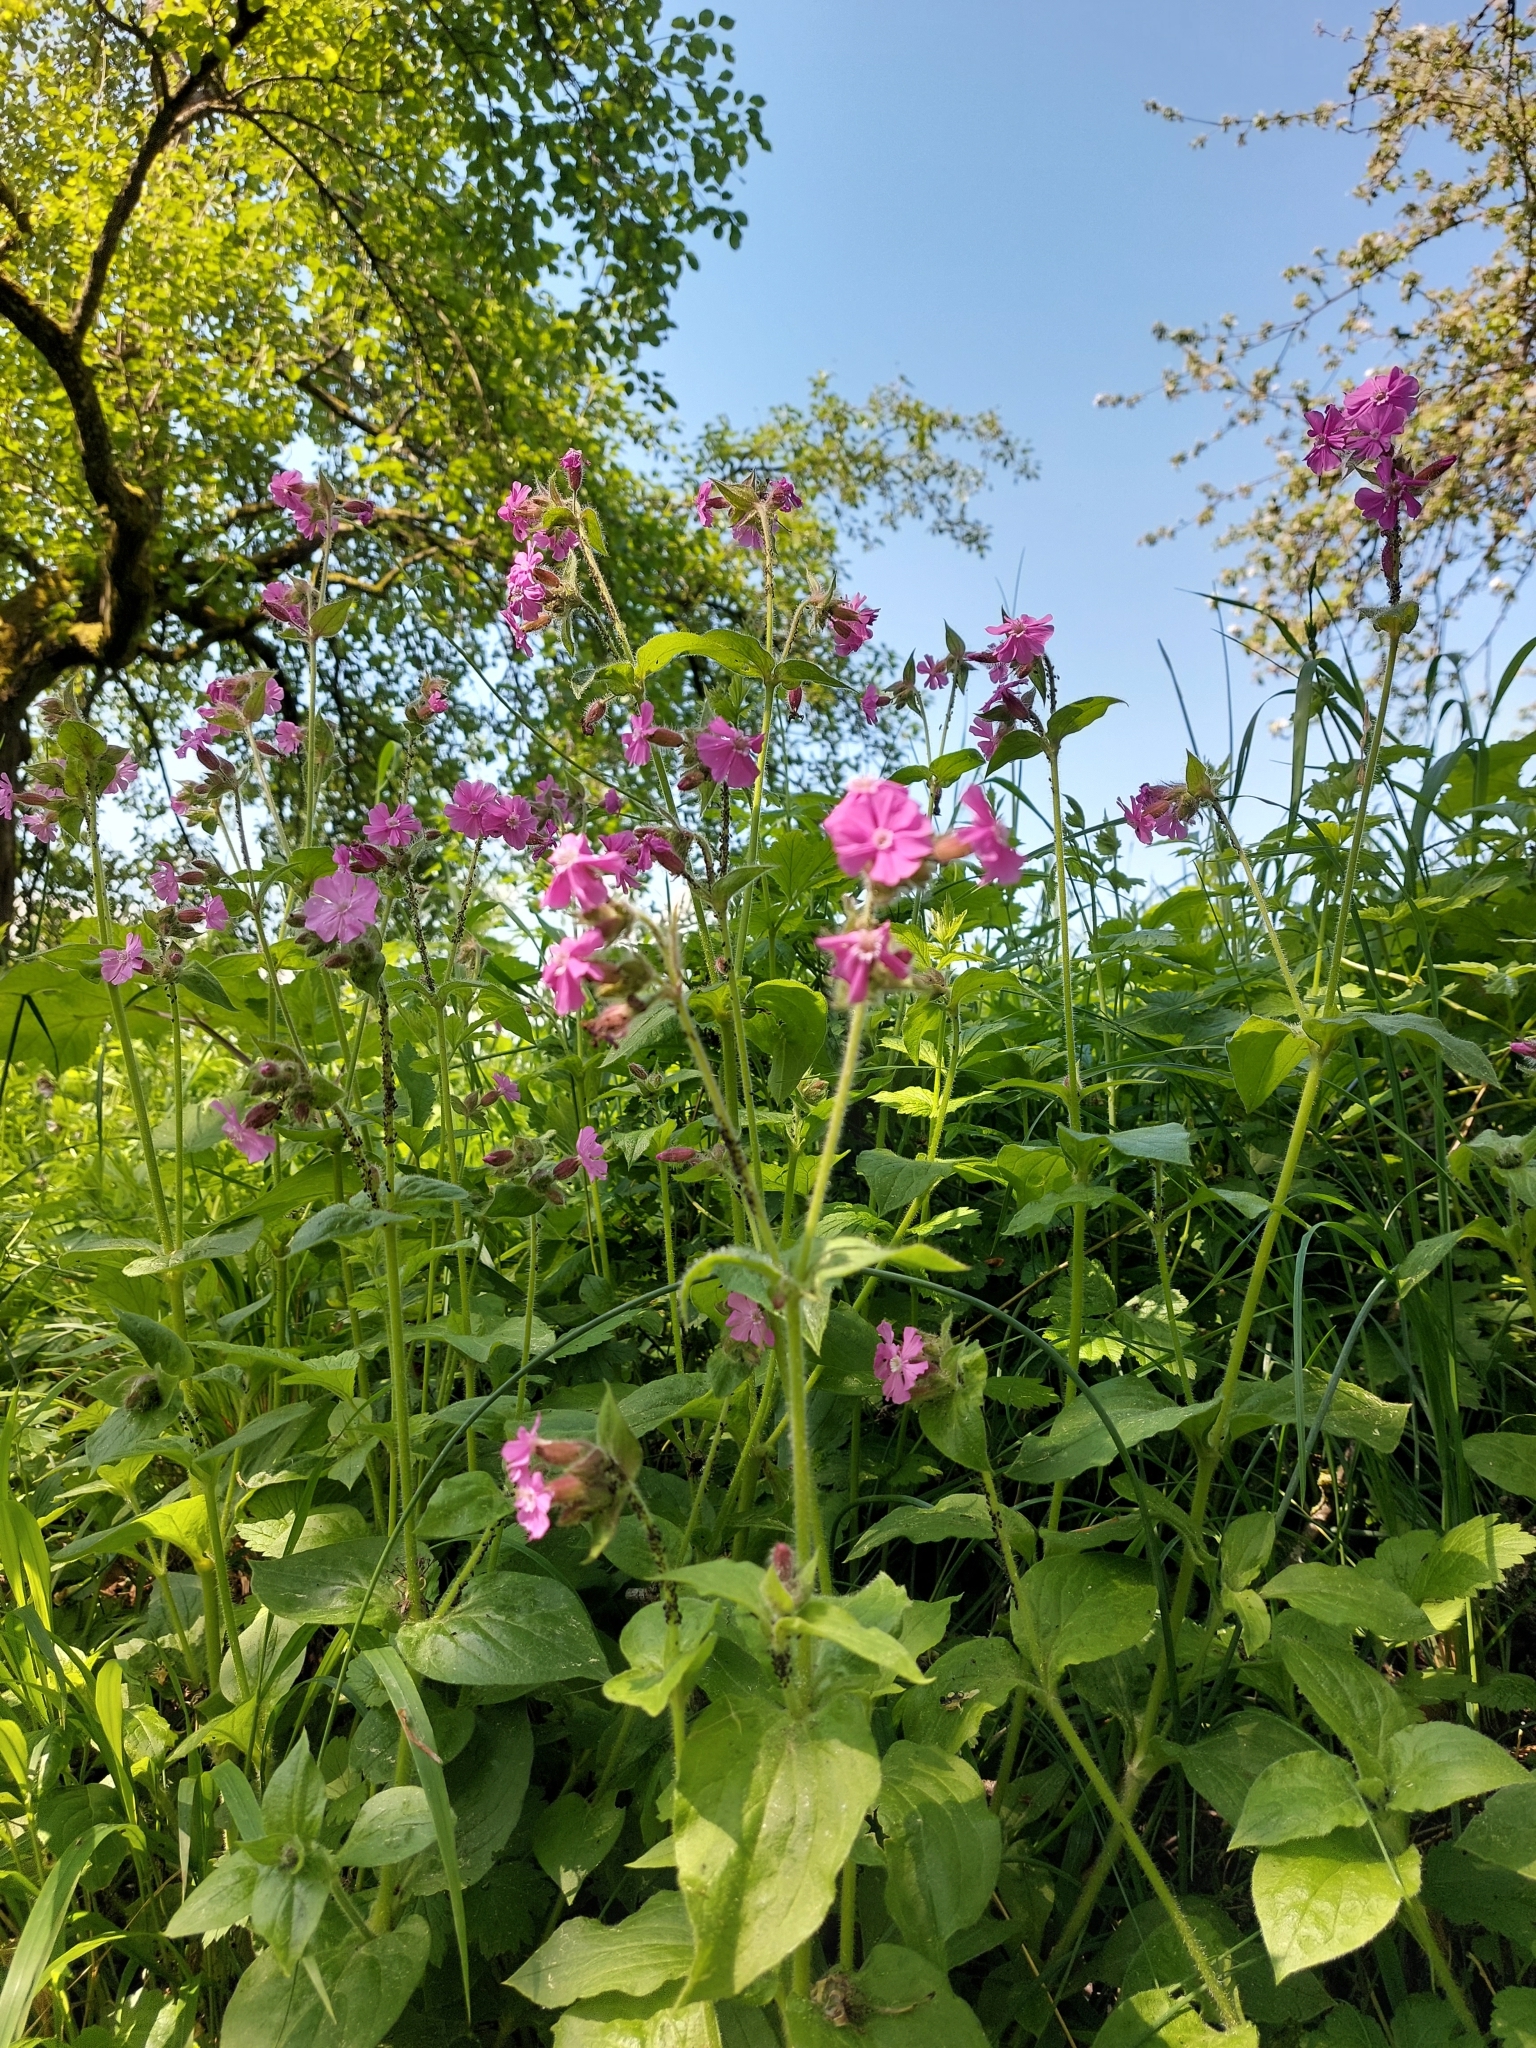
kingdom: Plantae
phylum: Tracheophyta
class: Magnoliopsida
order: Caryophyllales
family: Caryophyllaceae
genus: Silene
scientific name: Silene dioica
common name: Red campion
